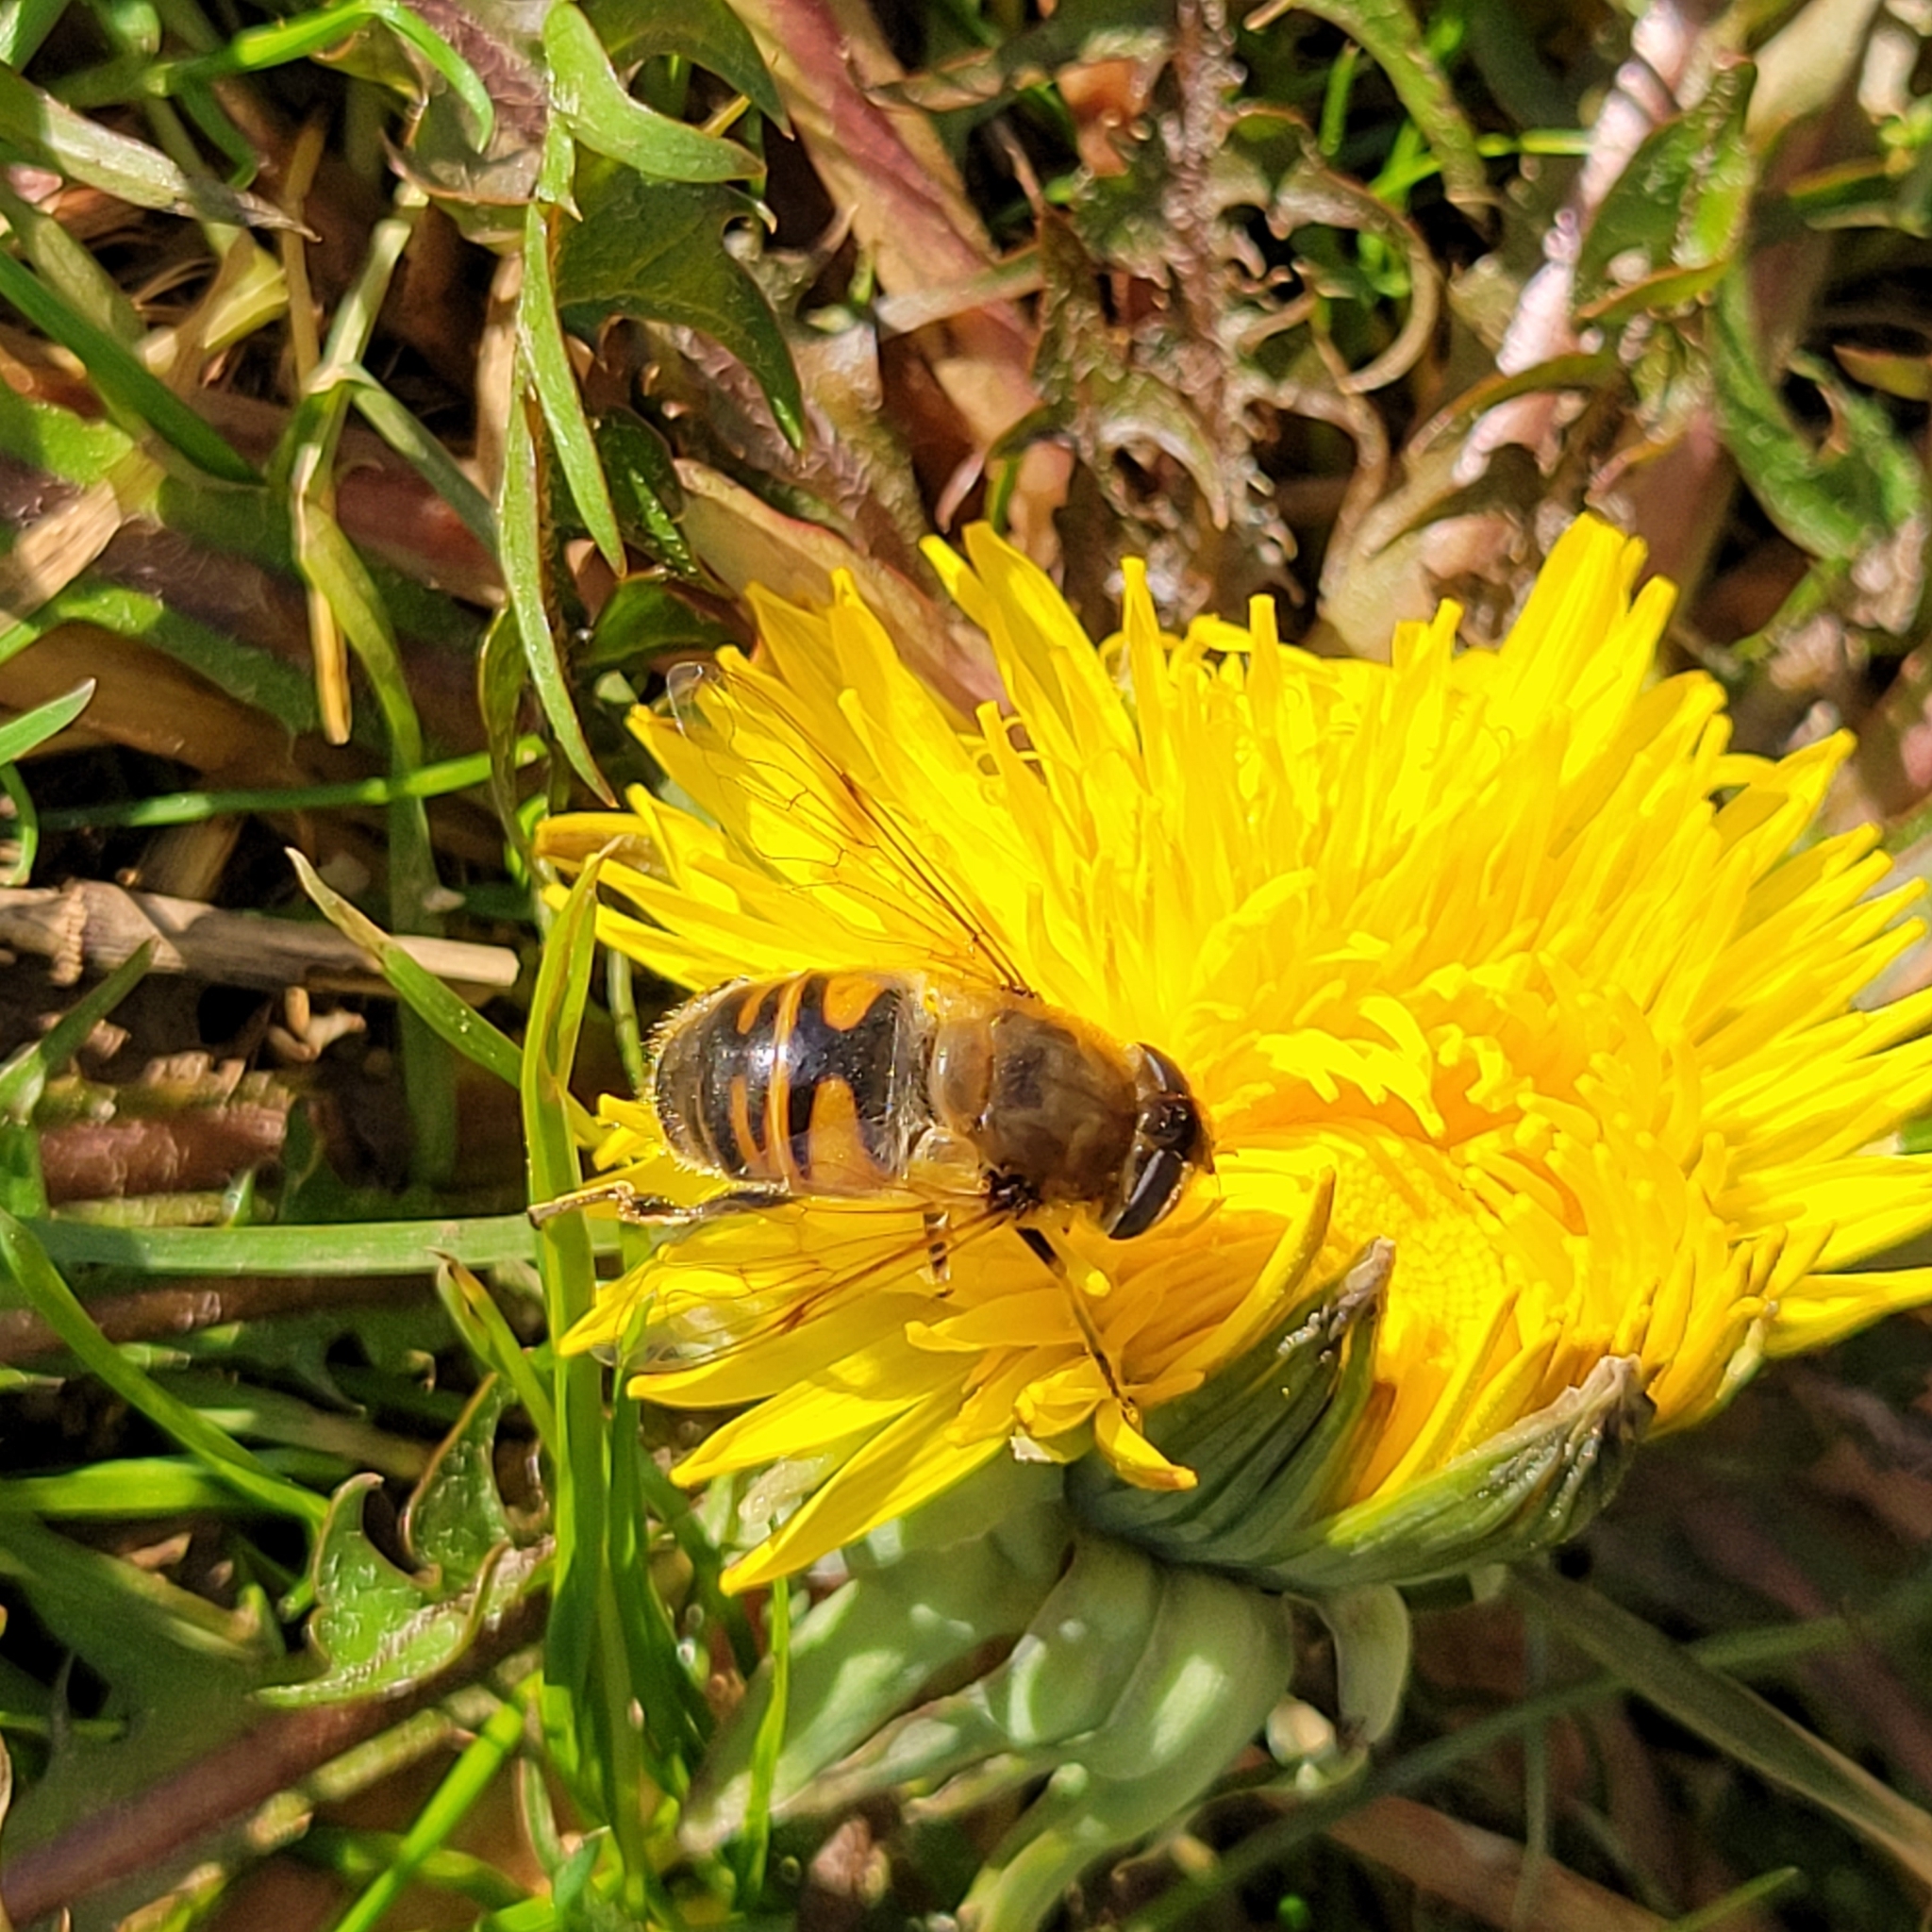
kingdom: Animalia
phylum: Arthropoda
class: Insecta
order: Diptera
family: Syrphidae
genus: Eristalis
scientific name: Eristalis tenax
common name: Drone fly
